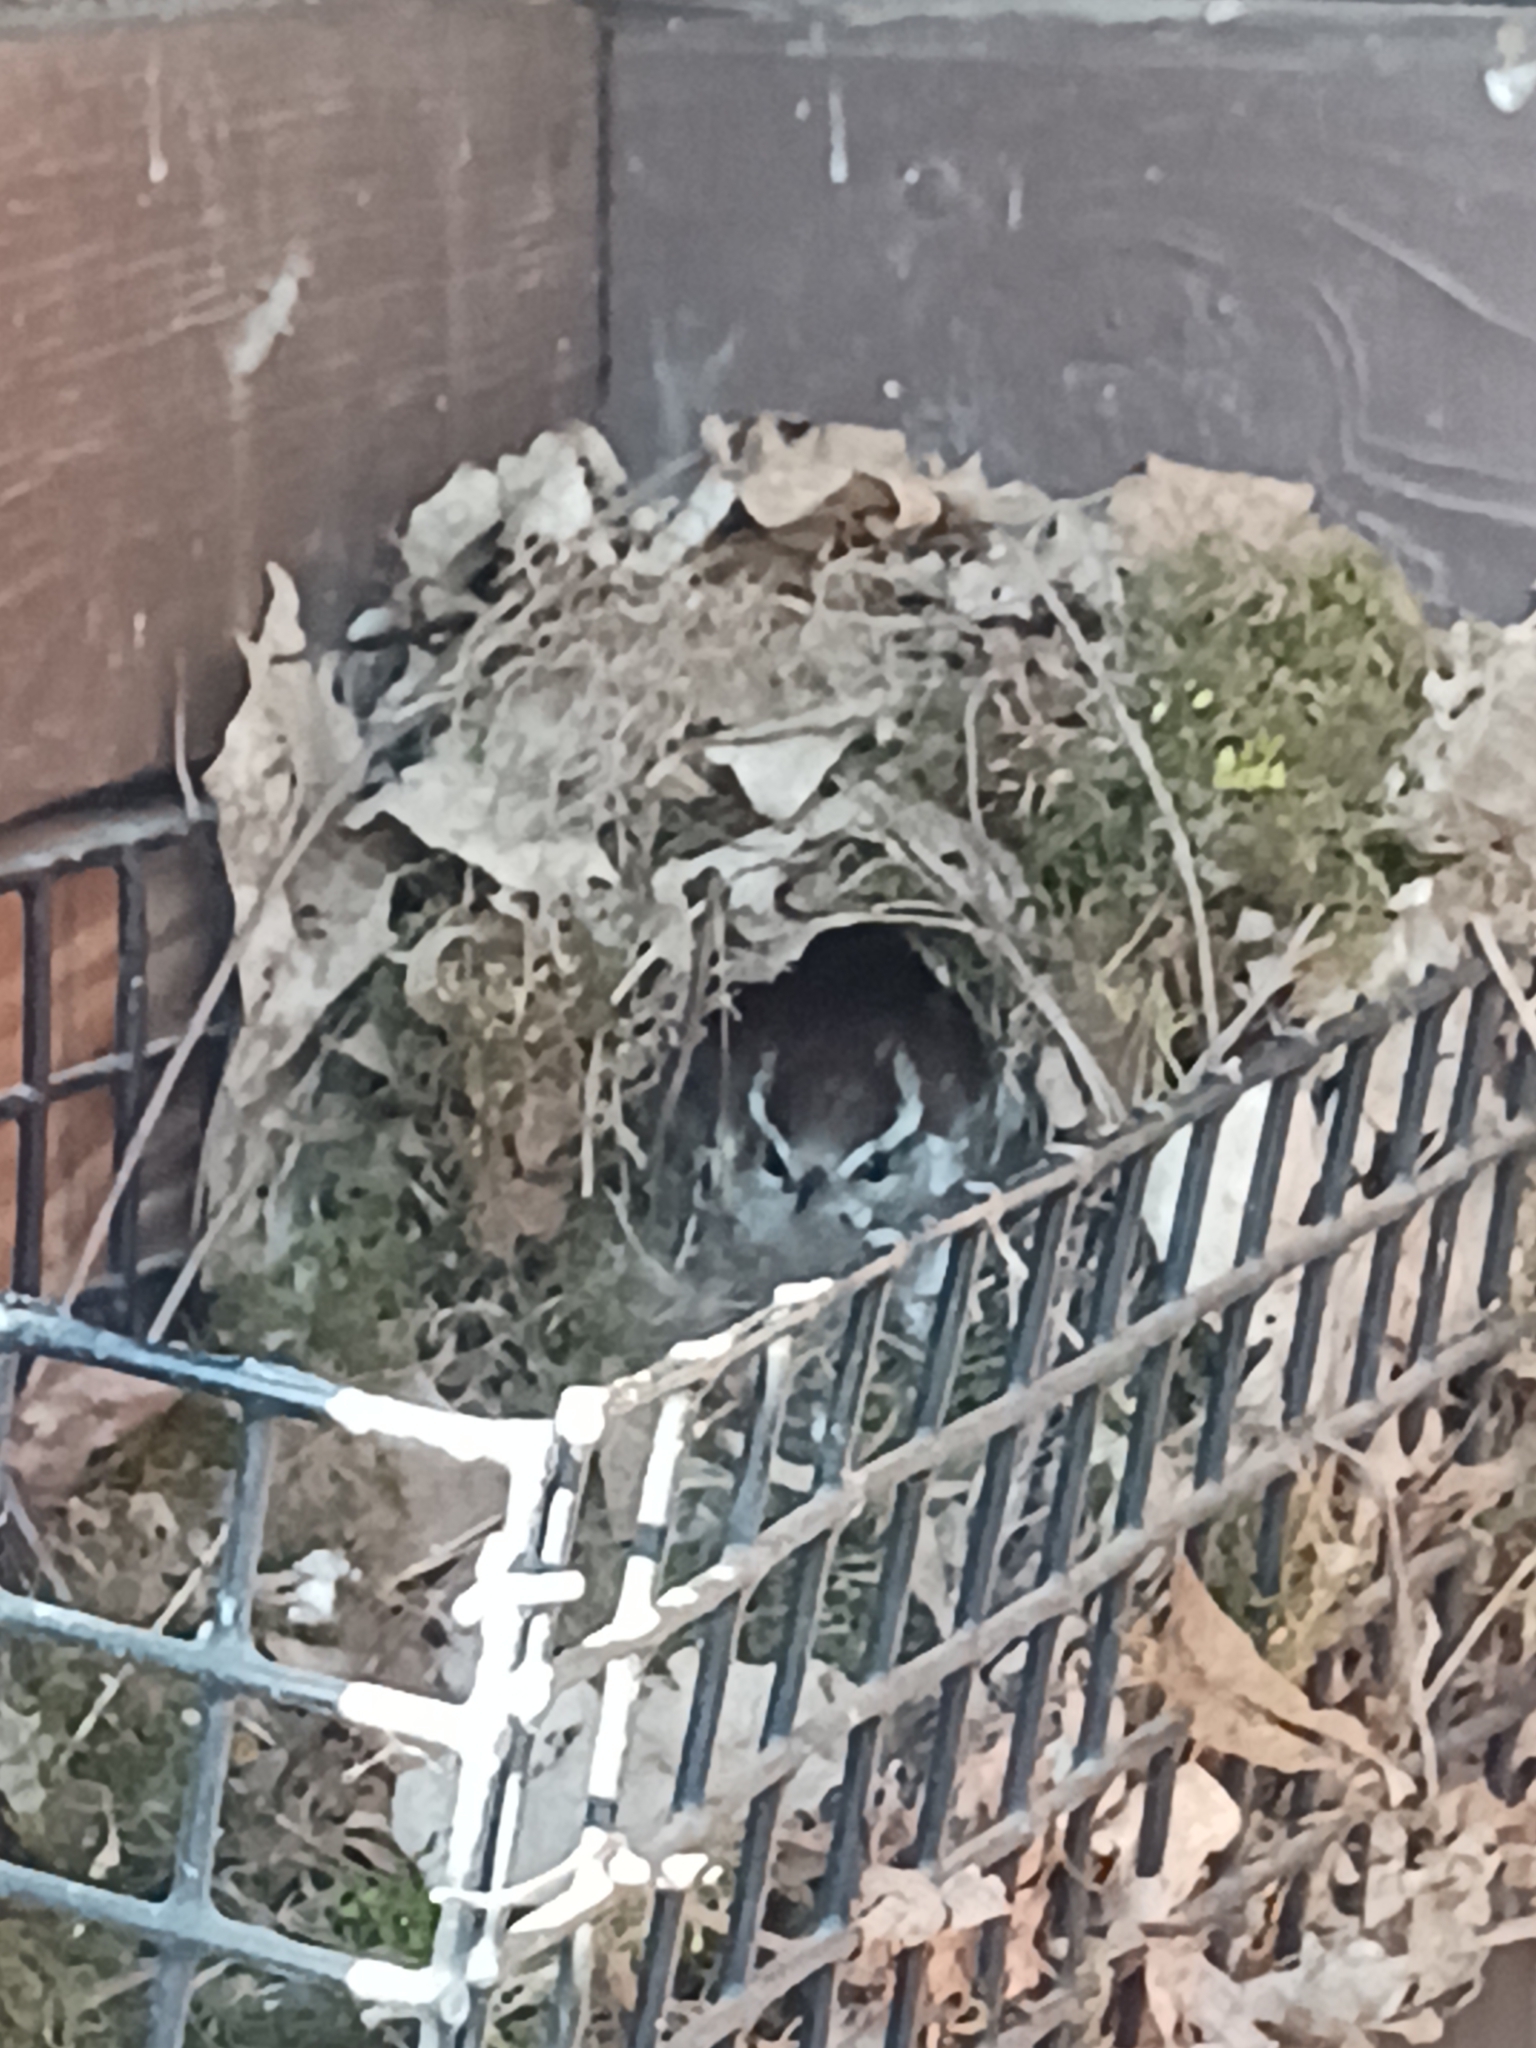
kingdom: Animalia
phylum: Chordata
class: Aves
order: Passeriformes
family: Troglodytidae
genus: Thryothorus
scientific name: Thryothorus ludovicianus
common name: Carolina wren
